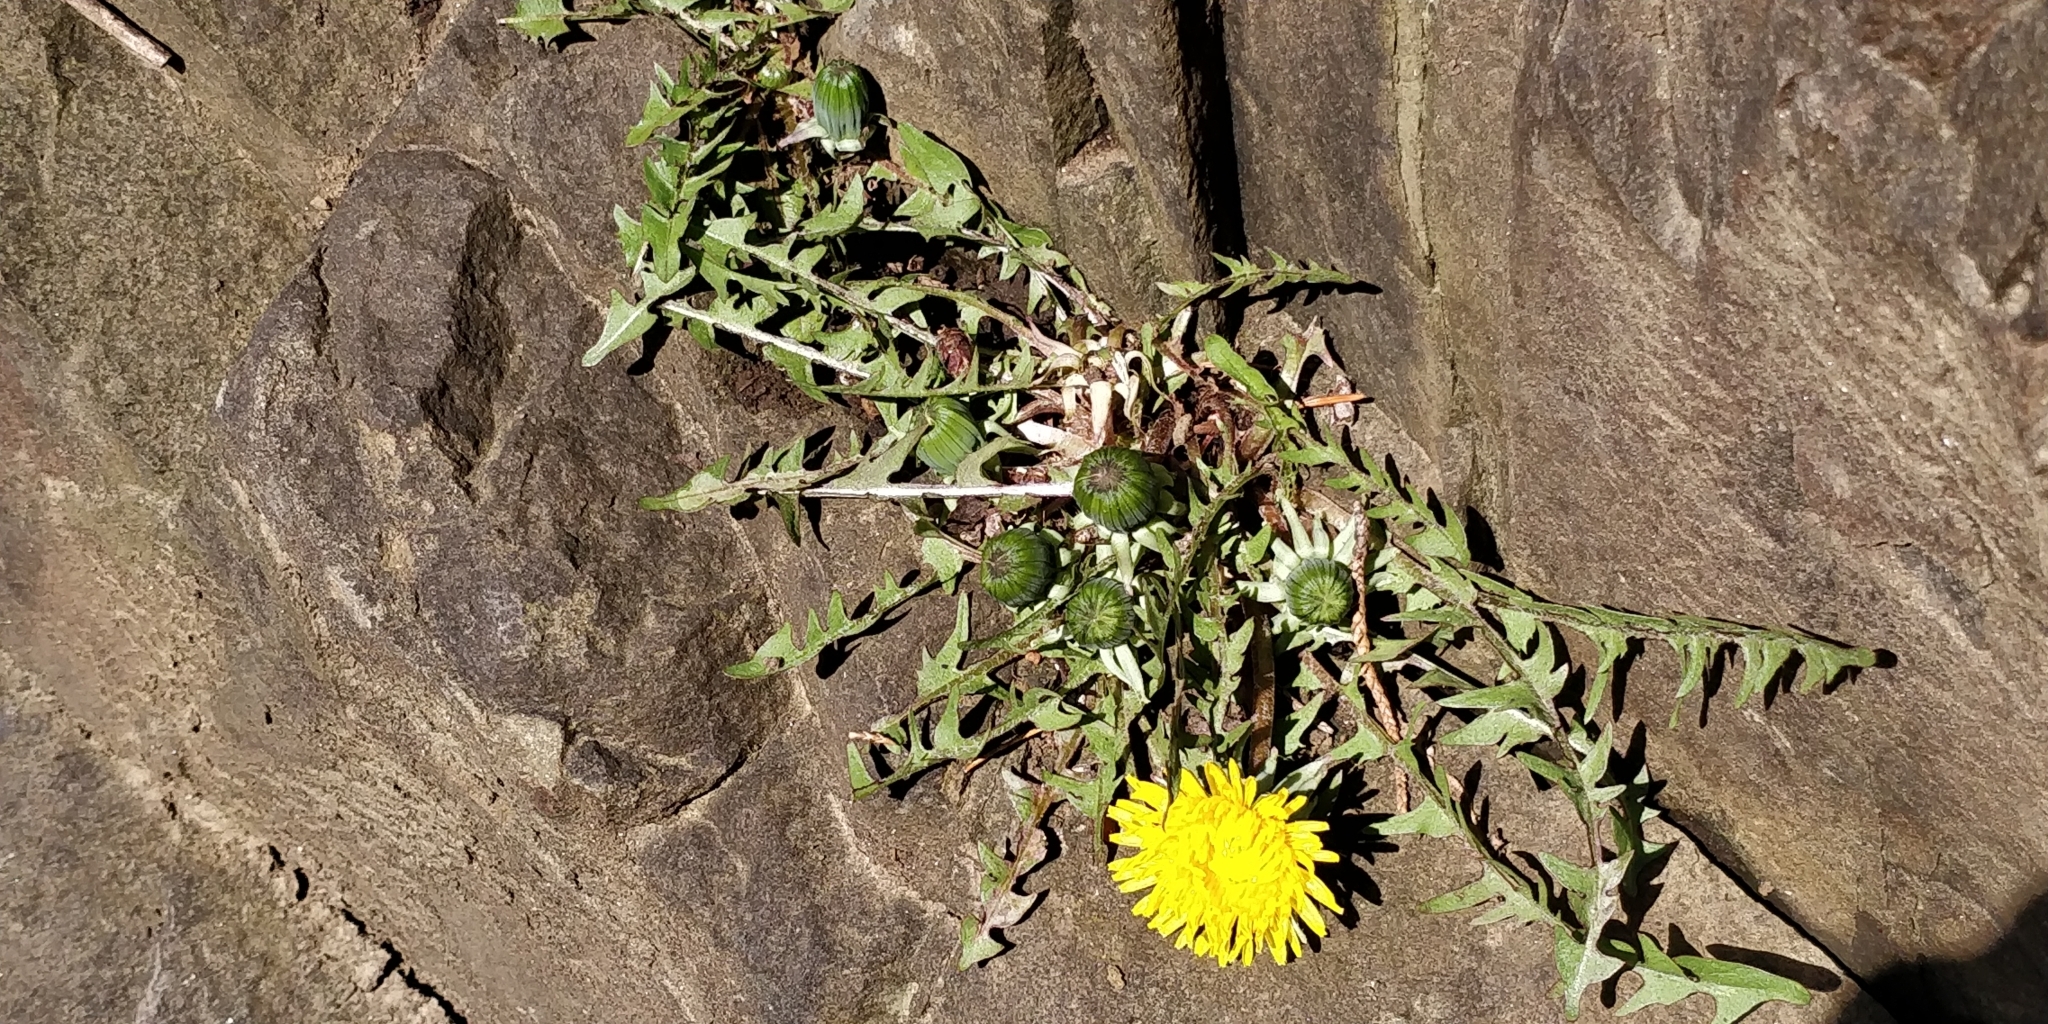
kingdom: Plantae
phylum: Tracheophyta
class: Magnoliopsida
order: Asterales
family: Asteraceae
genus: Taraxacum
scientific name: Taraxacum officinale
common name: Common dandelion
